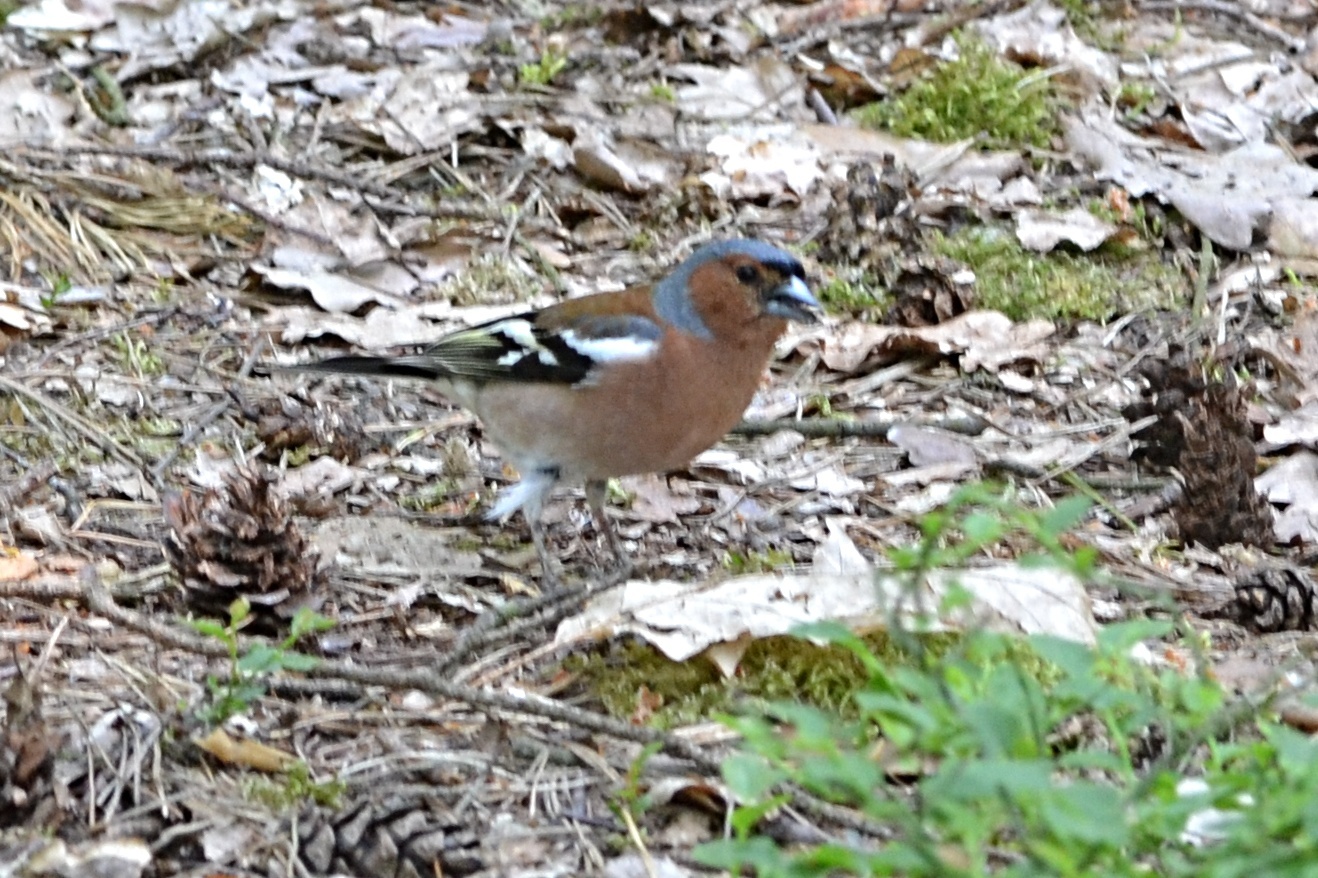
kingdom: Animalia
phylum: Chordata
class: Aves
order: Passeriformes
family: Fringillidae
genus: Fringilla
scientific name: Fringilla coelebs
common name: Common chaffinch
